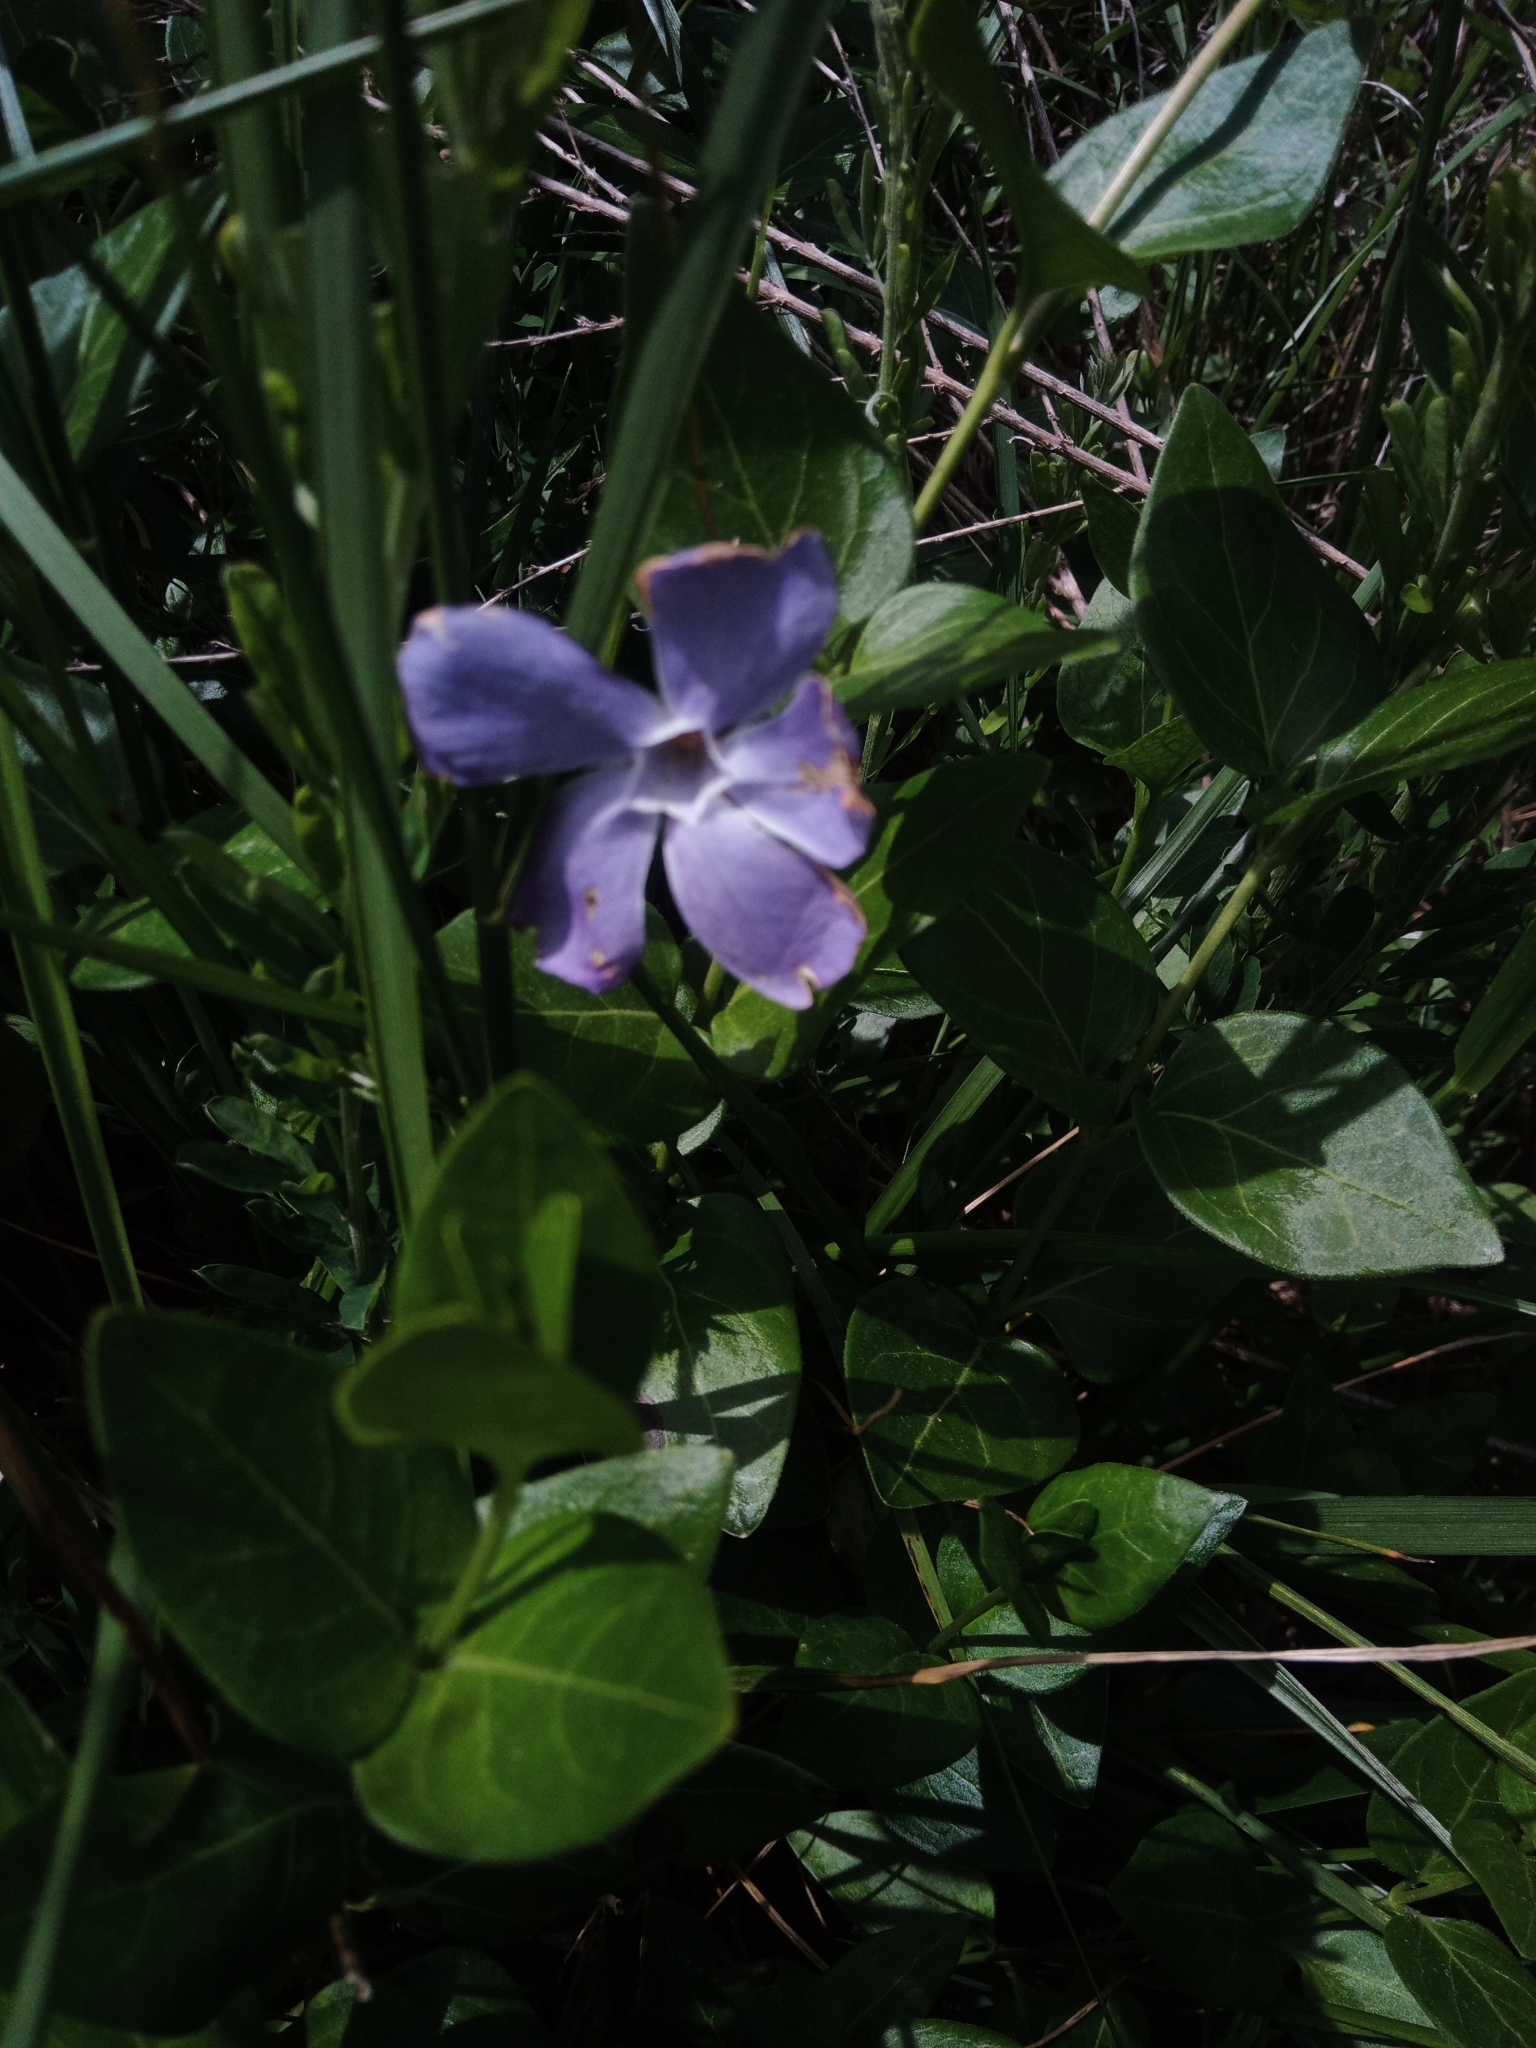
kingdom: Plantae
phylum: Tracheophyta
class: Magnoliopsida
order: Gentianales
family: Apocynaceae
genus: Vinca
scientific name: Vinca major
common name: Greater periwinkle
